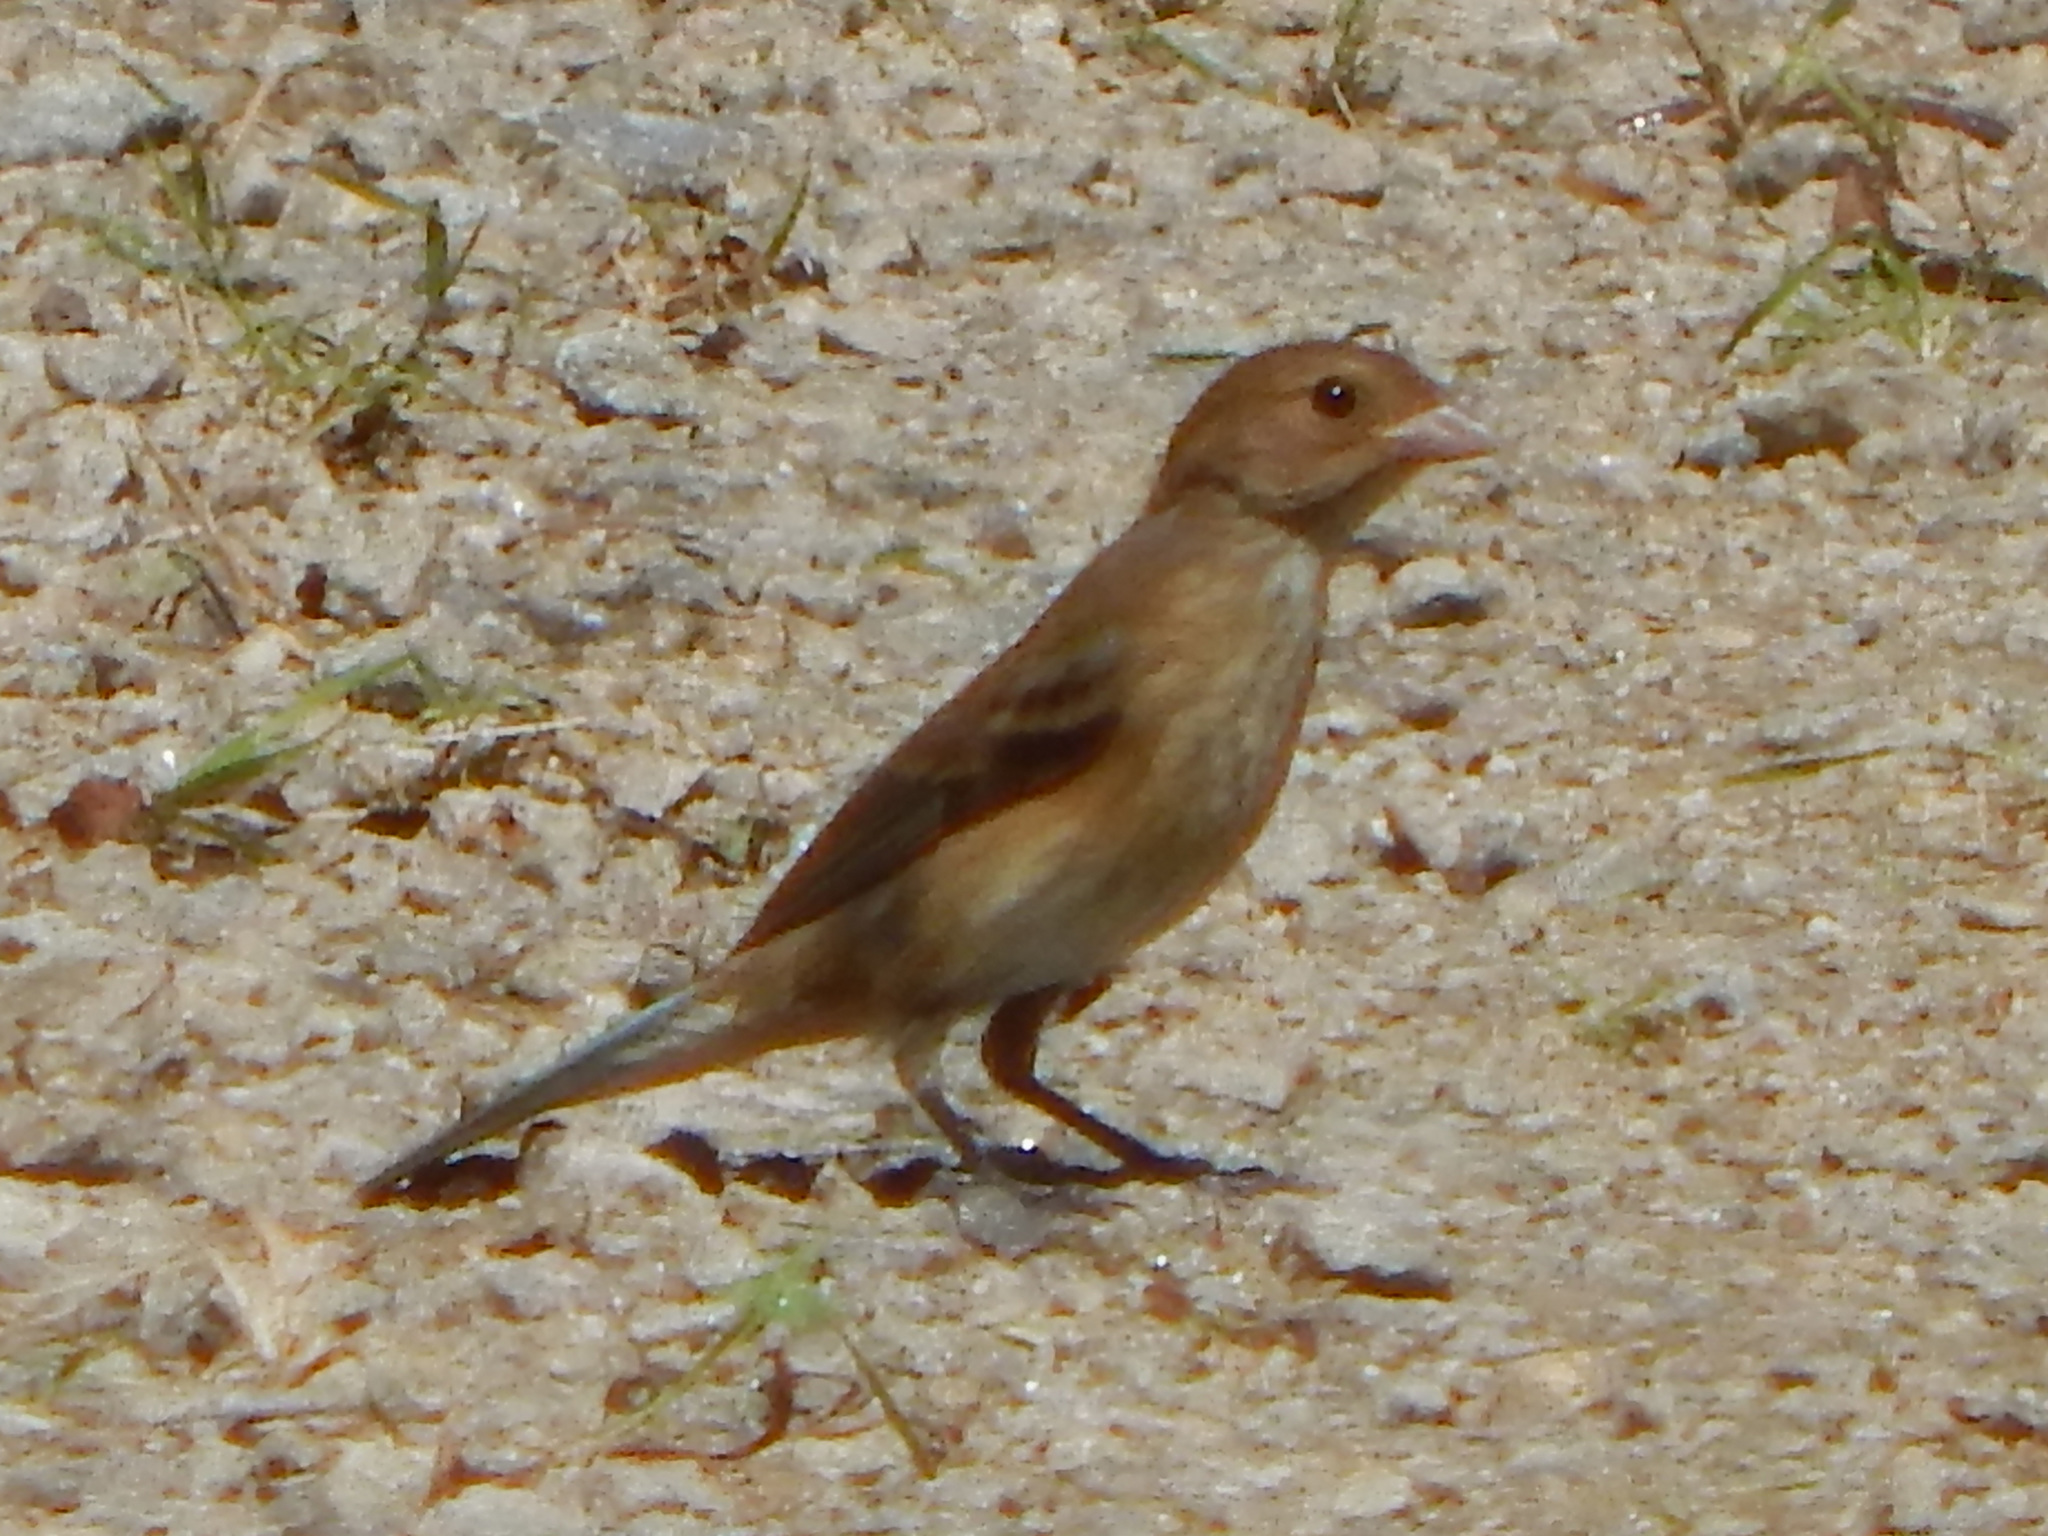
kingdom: Animalia
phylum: Chordata
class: Aves
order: Passeriformes
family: Cardinalidae
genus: Passerina
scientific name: Passerina cyanea
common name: Indigo bunting
